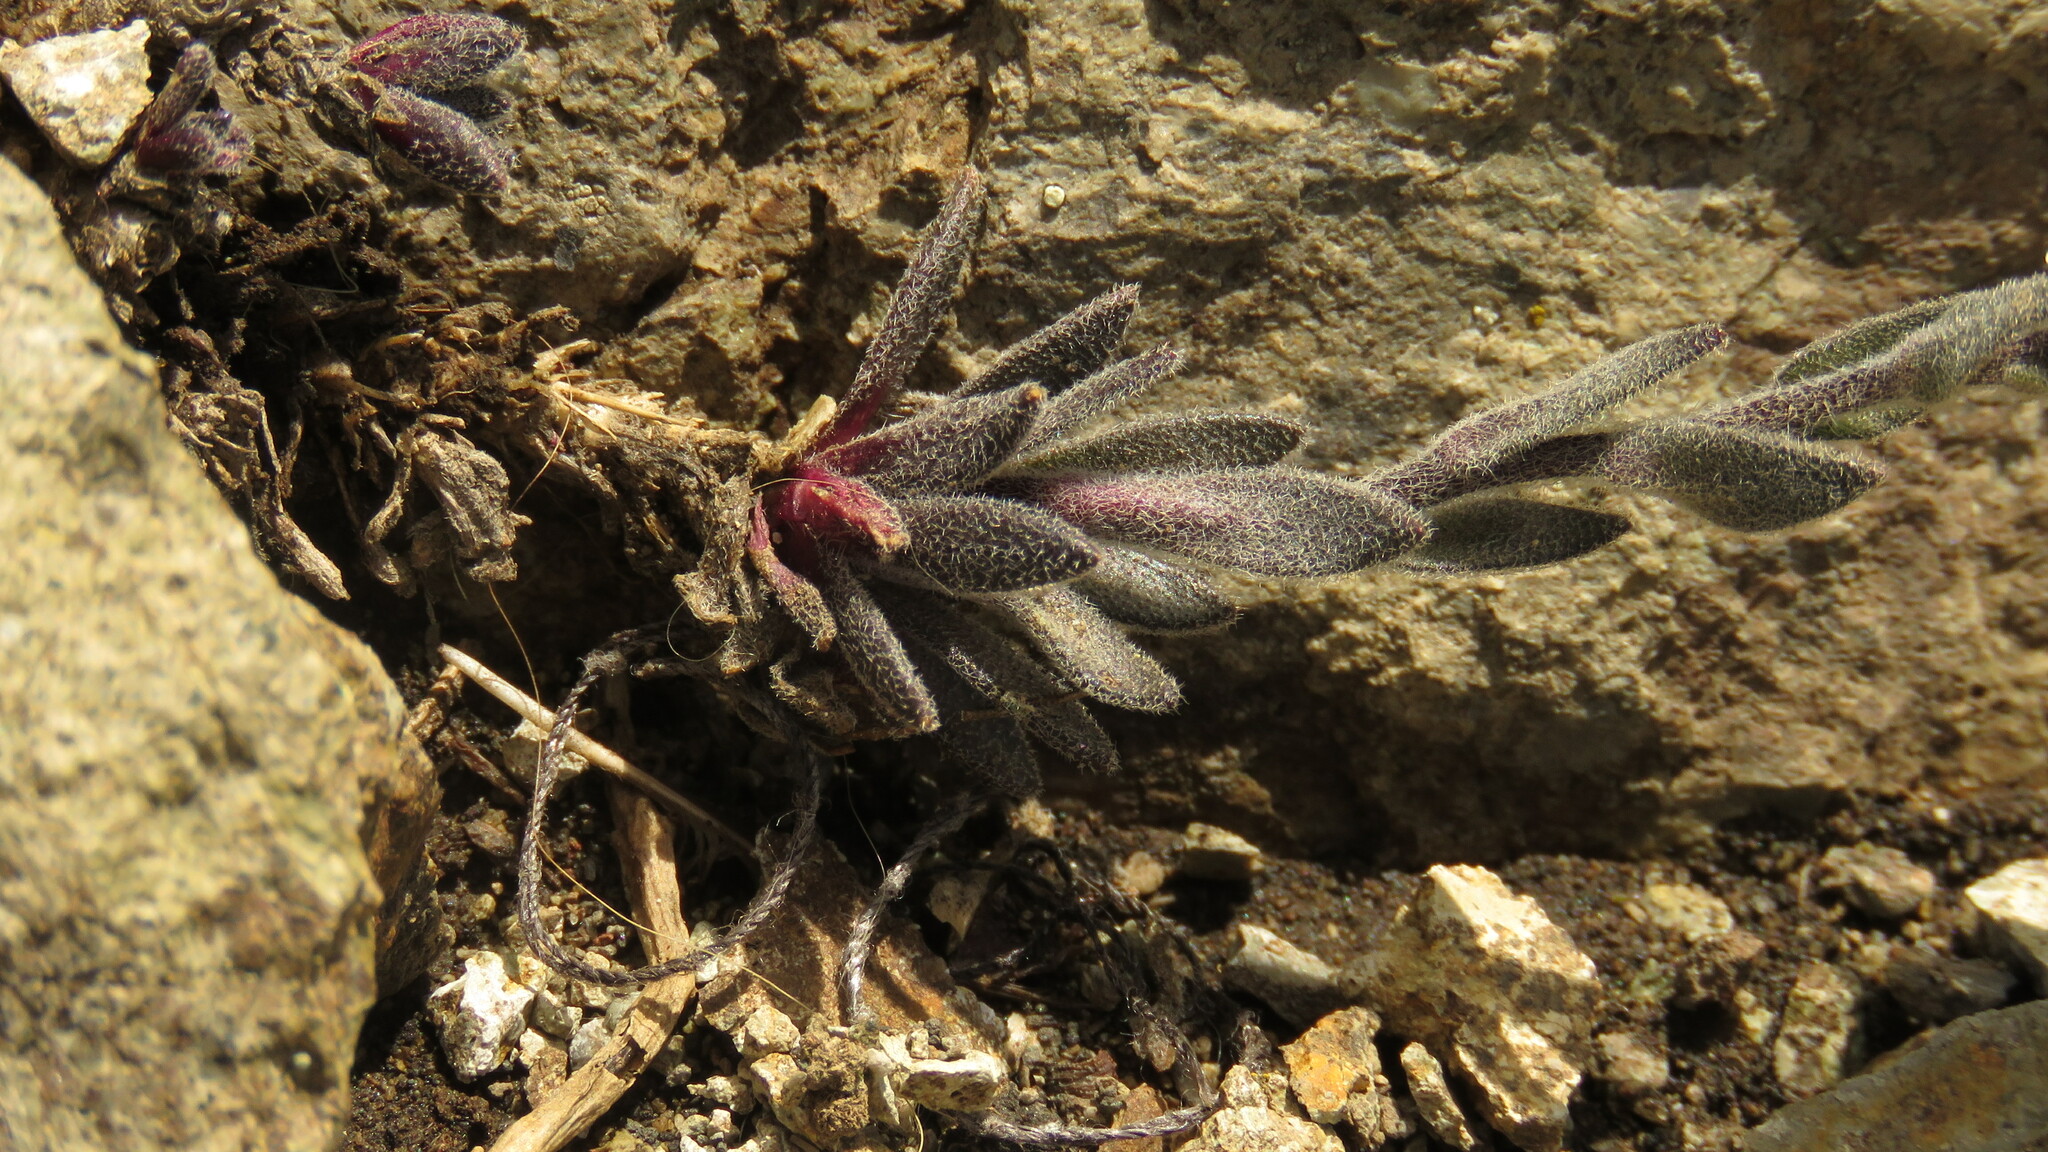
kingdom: Plantae
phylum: Tracheophyta
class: Magnoliopsida
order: Brassicales
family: Brassicaceae
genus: Draba
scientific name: Draba gilliesii
